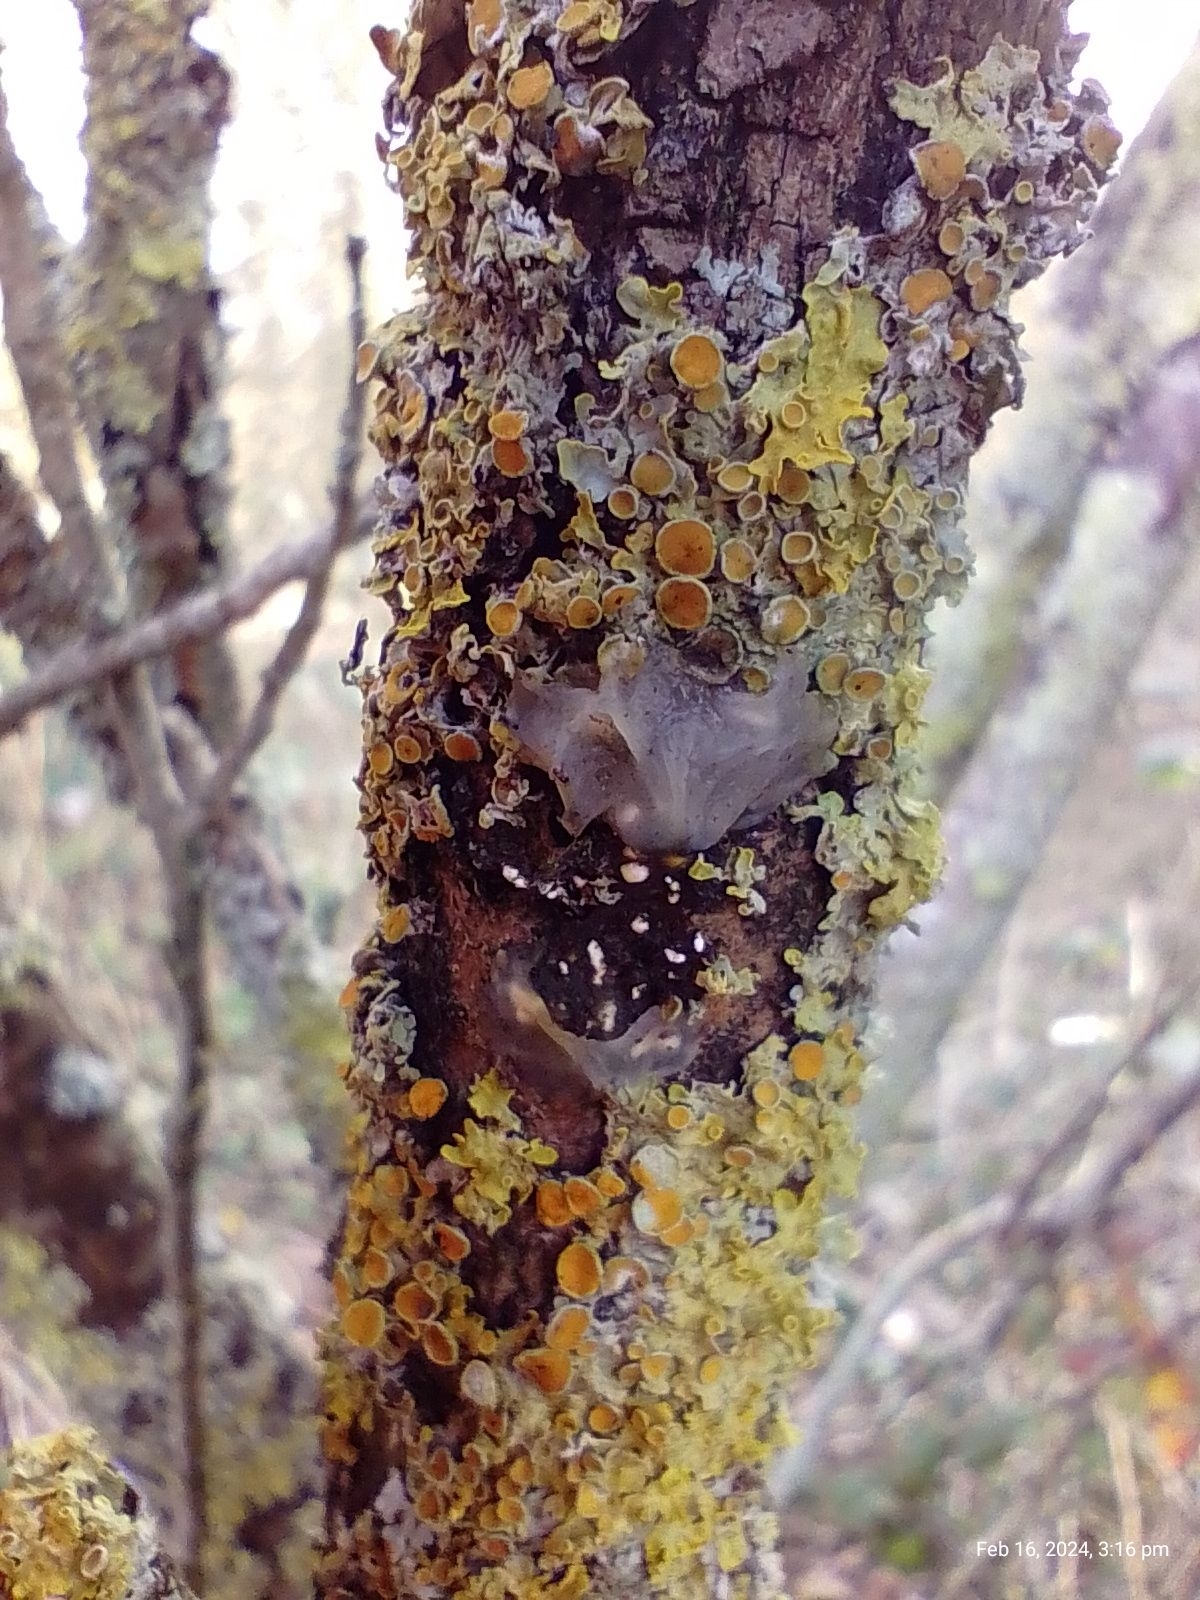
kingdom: Fungi
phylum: Basidiomycota
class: Agaricomycetes
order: Auriculariales
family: Hyaloriaceae
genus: Myxarium
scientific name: Myxarium nucleatum
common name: Crystal brain fungus
